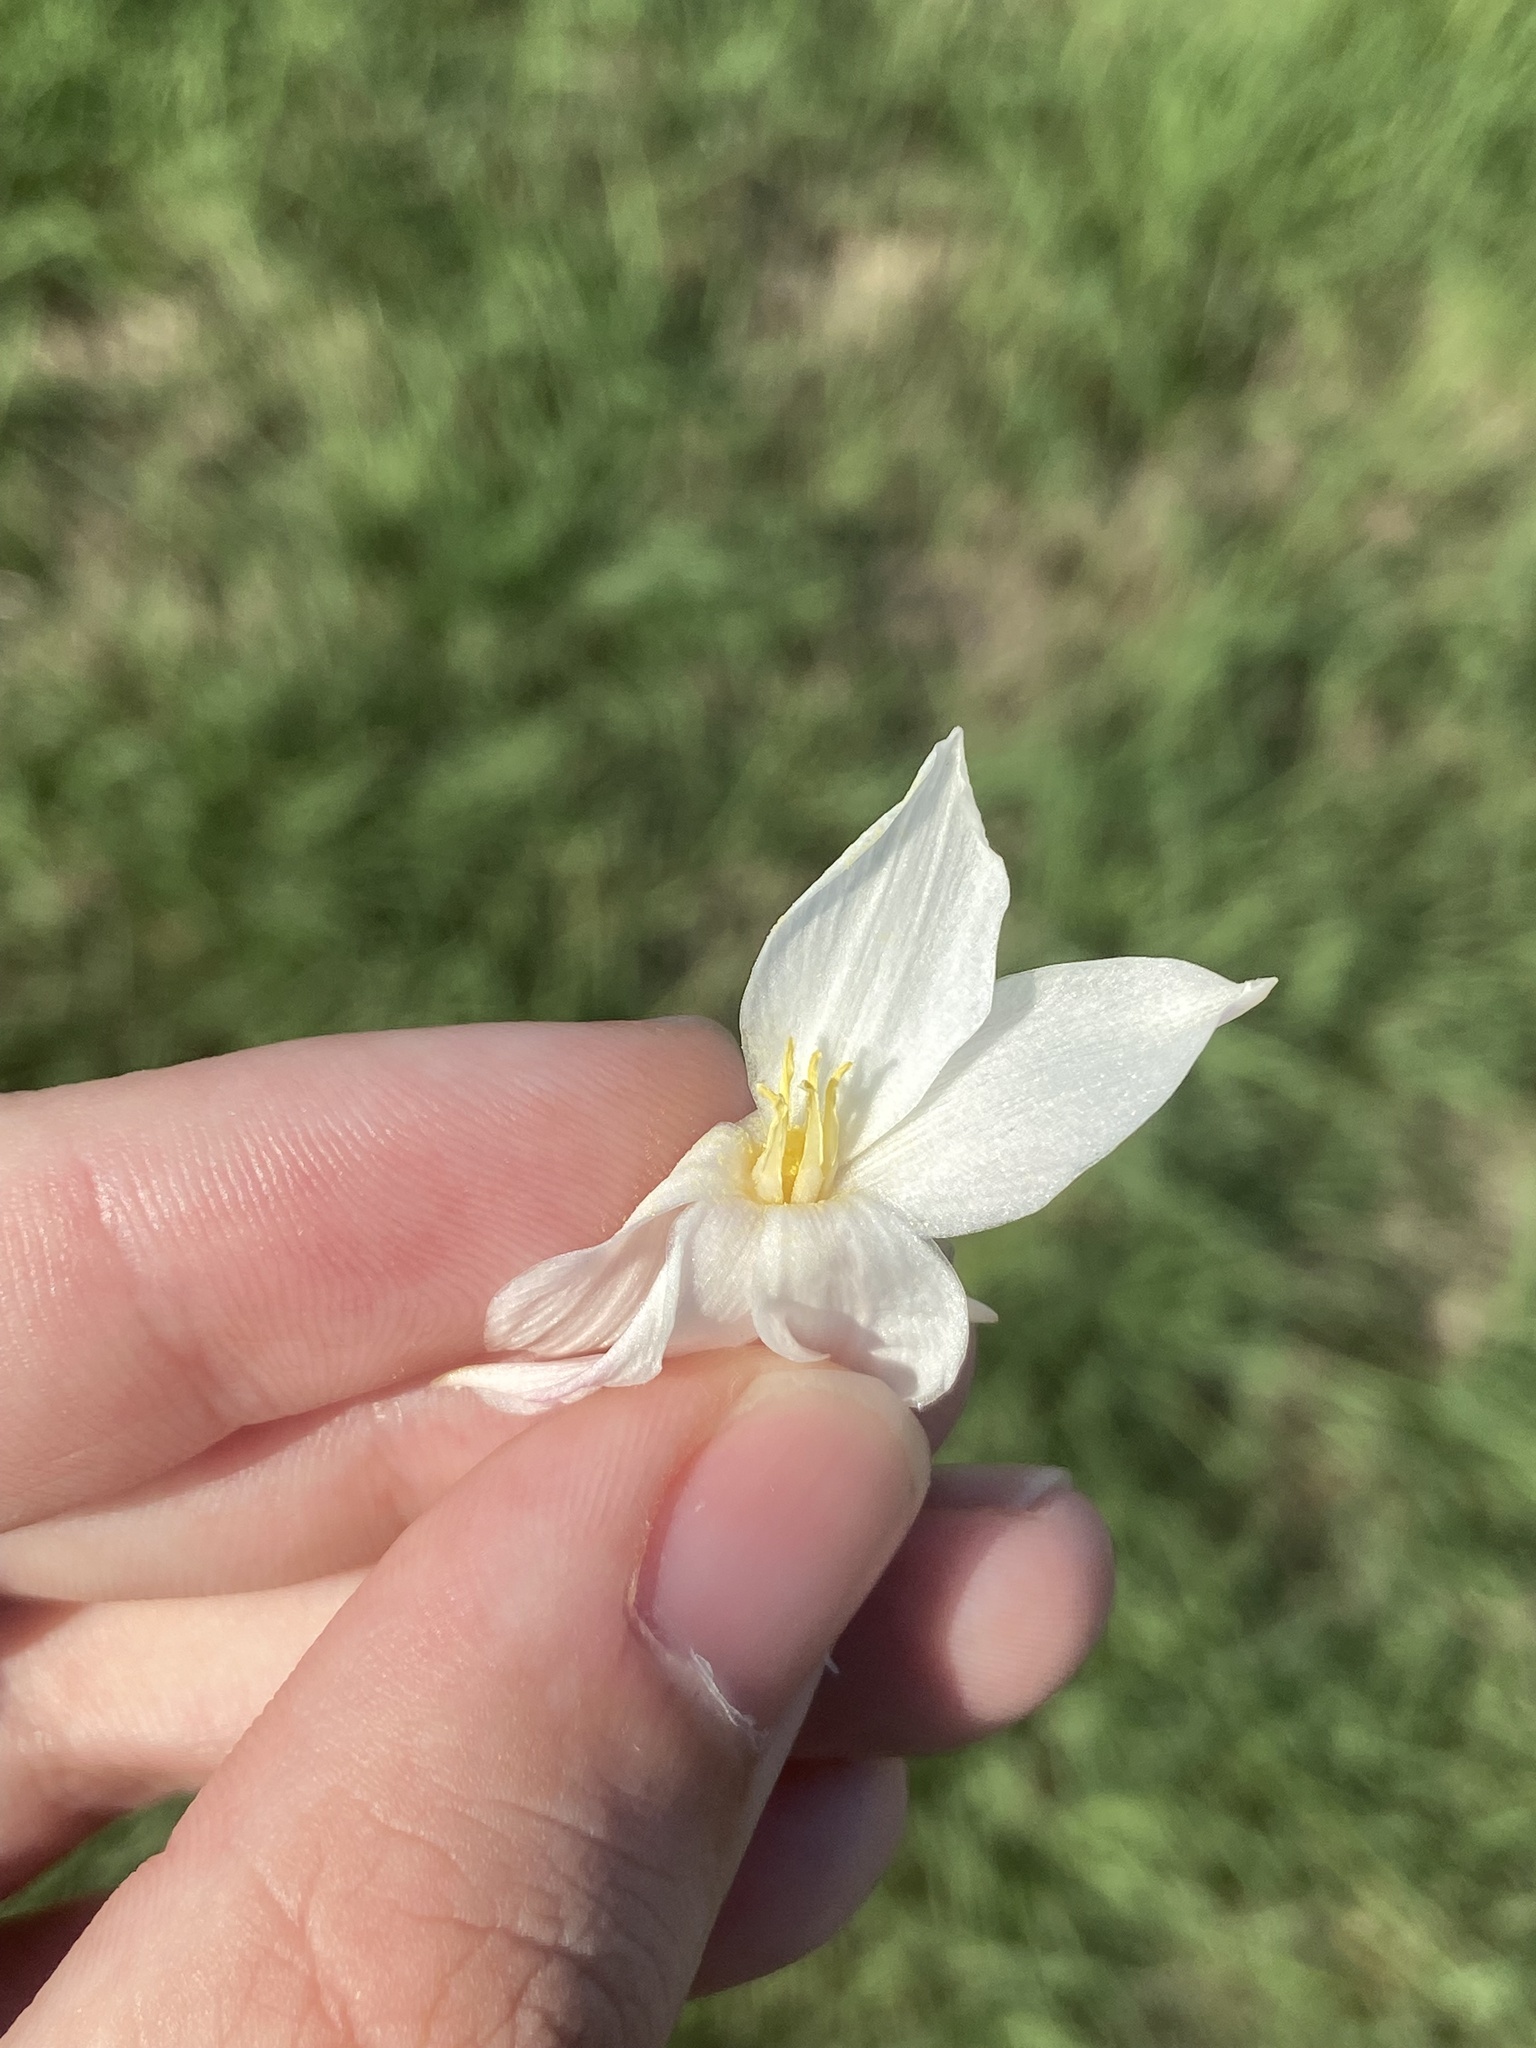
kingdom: Plantae
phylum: Tracheophyta
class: Liliopsida
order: Asparagales
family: Amaryllidaceae
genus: Zephyranthes
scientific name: Zephyranthes chlorosolen
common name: Evening rain-lily
